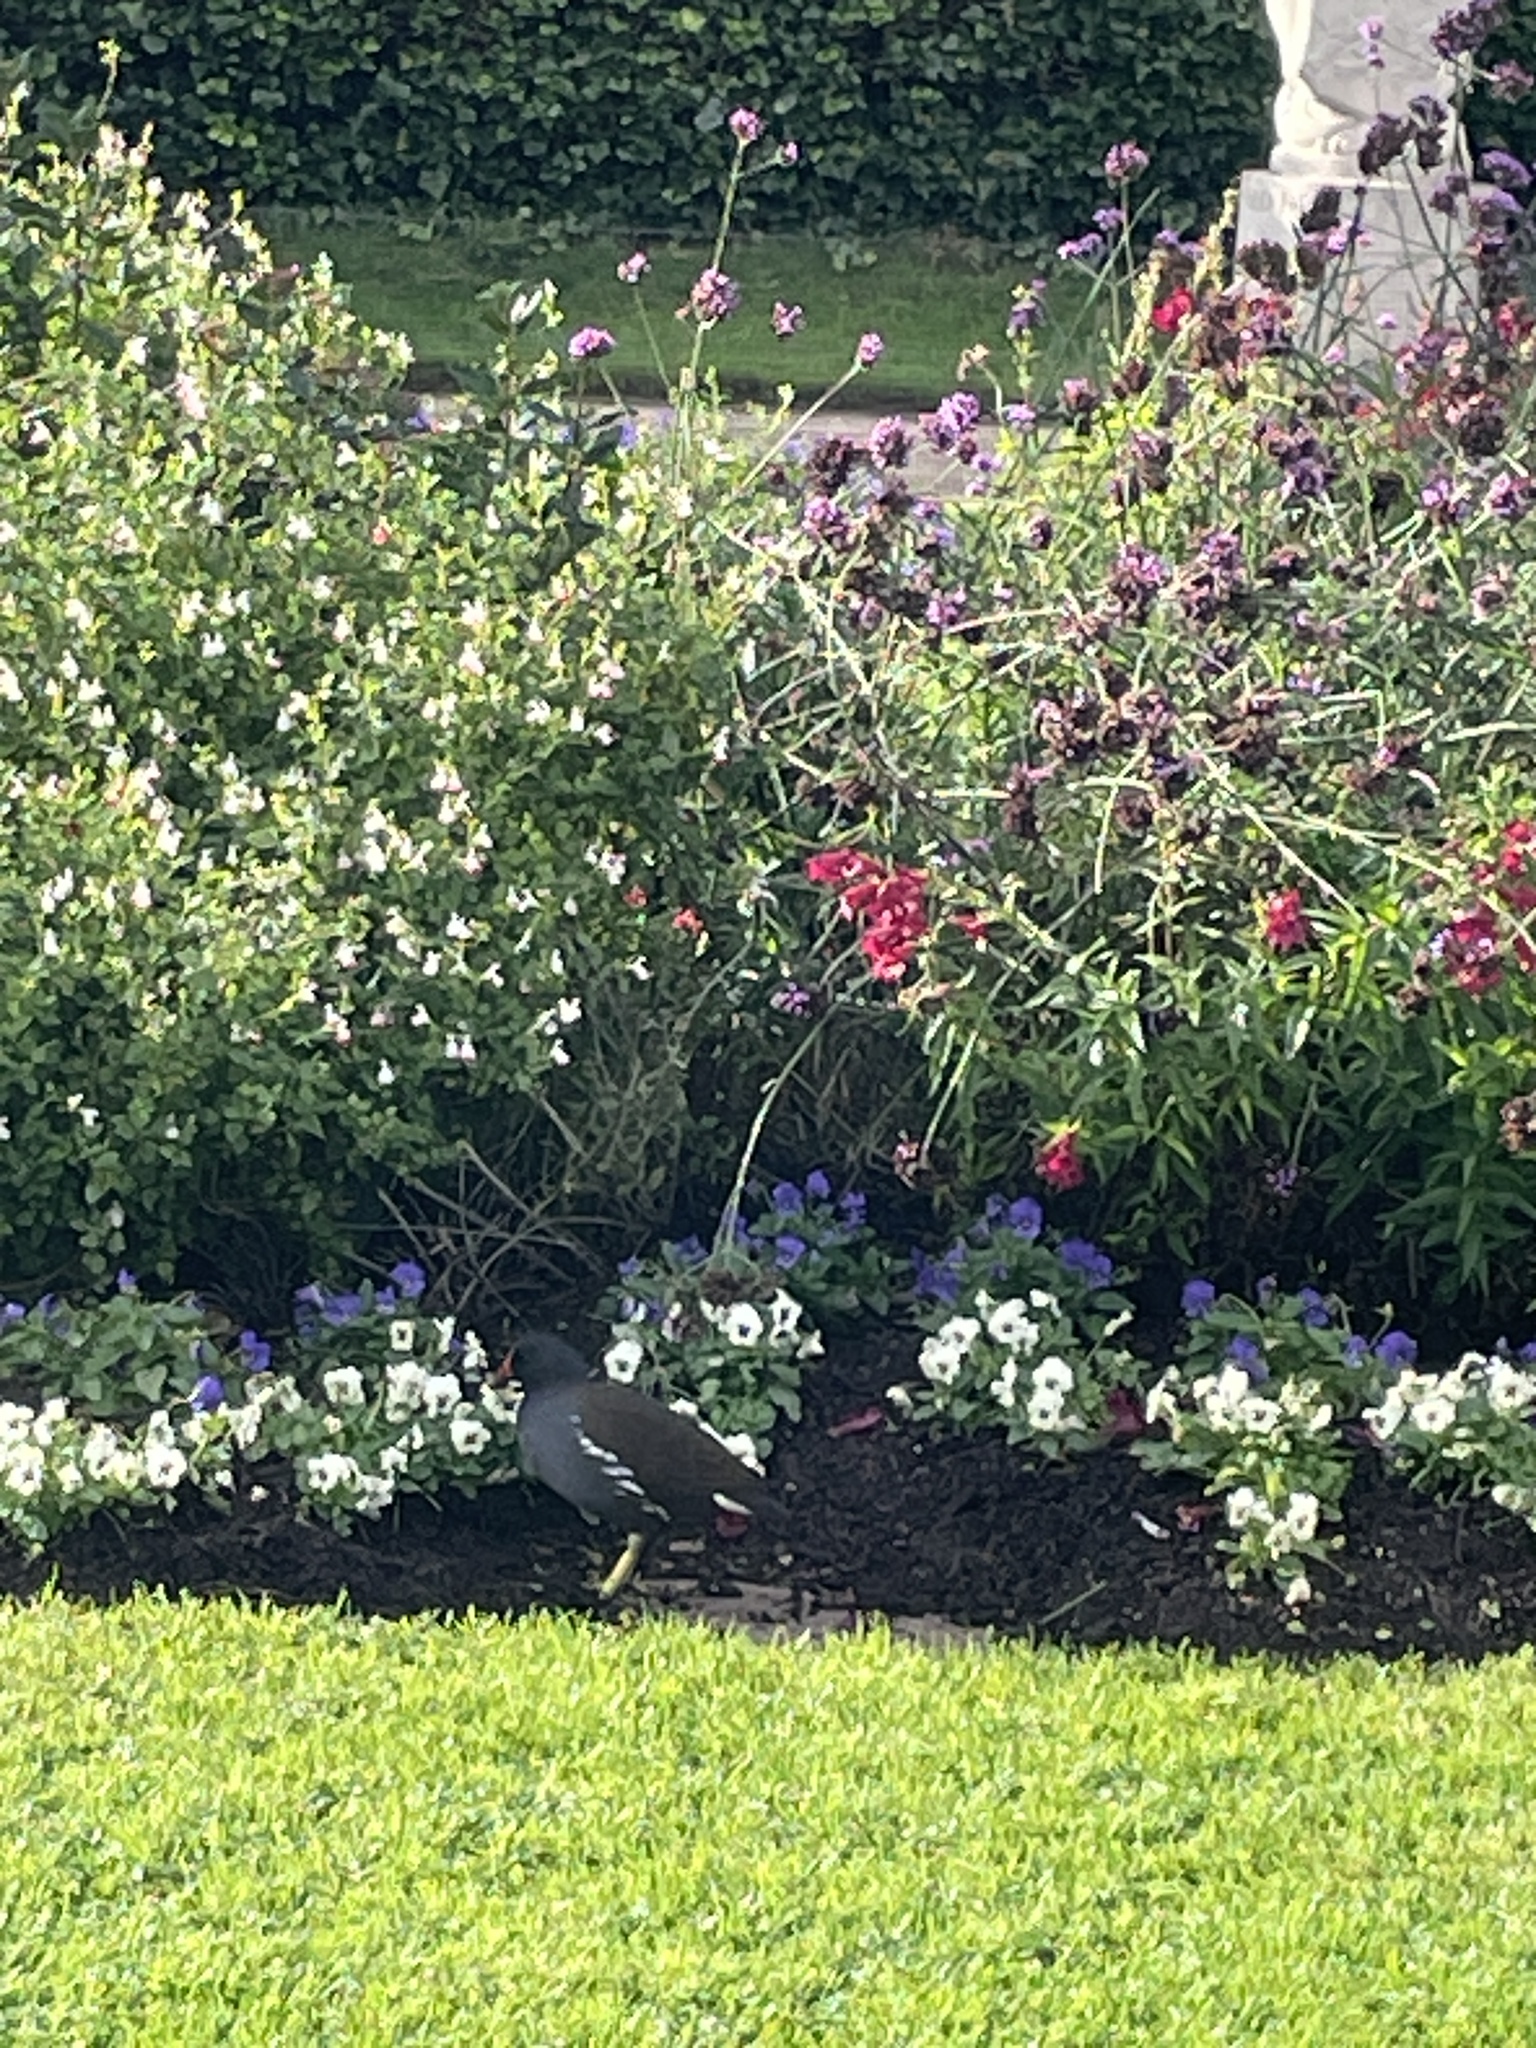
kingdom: Animalia
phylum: Chordata
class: Aves
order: Gruiformes
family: Rallidae
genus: Gallinula
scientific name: Gallinula chloropus
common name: Common moorhen
